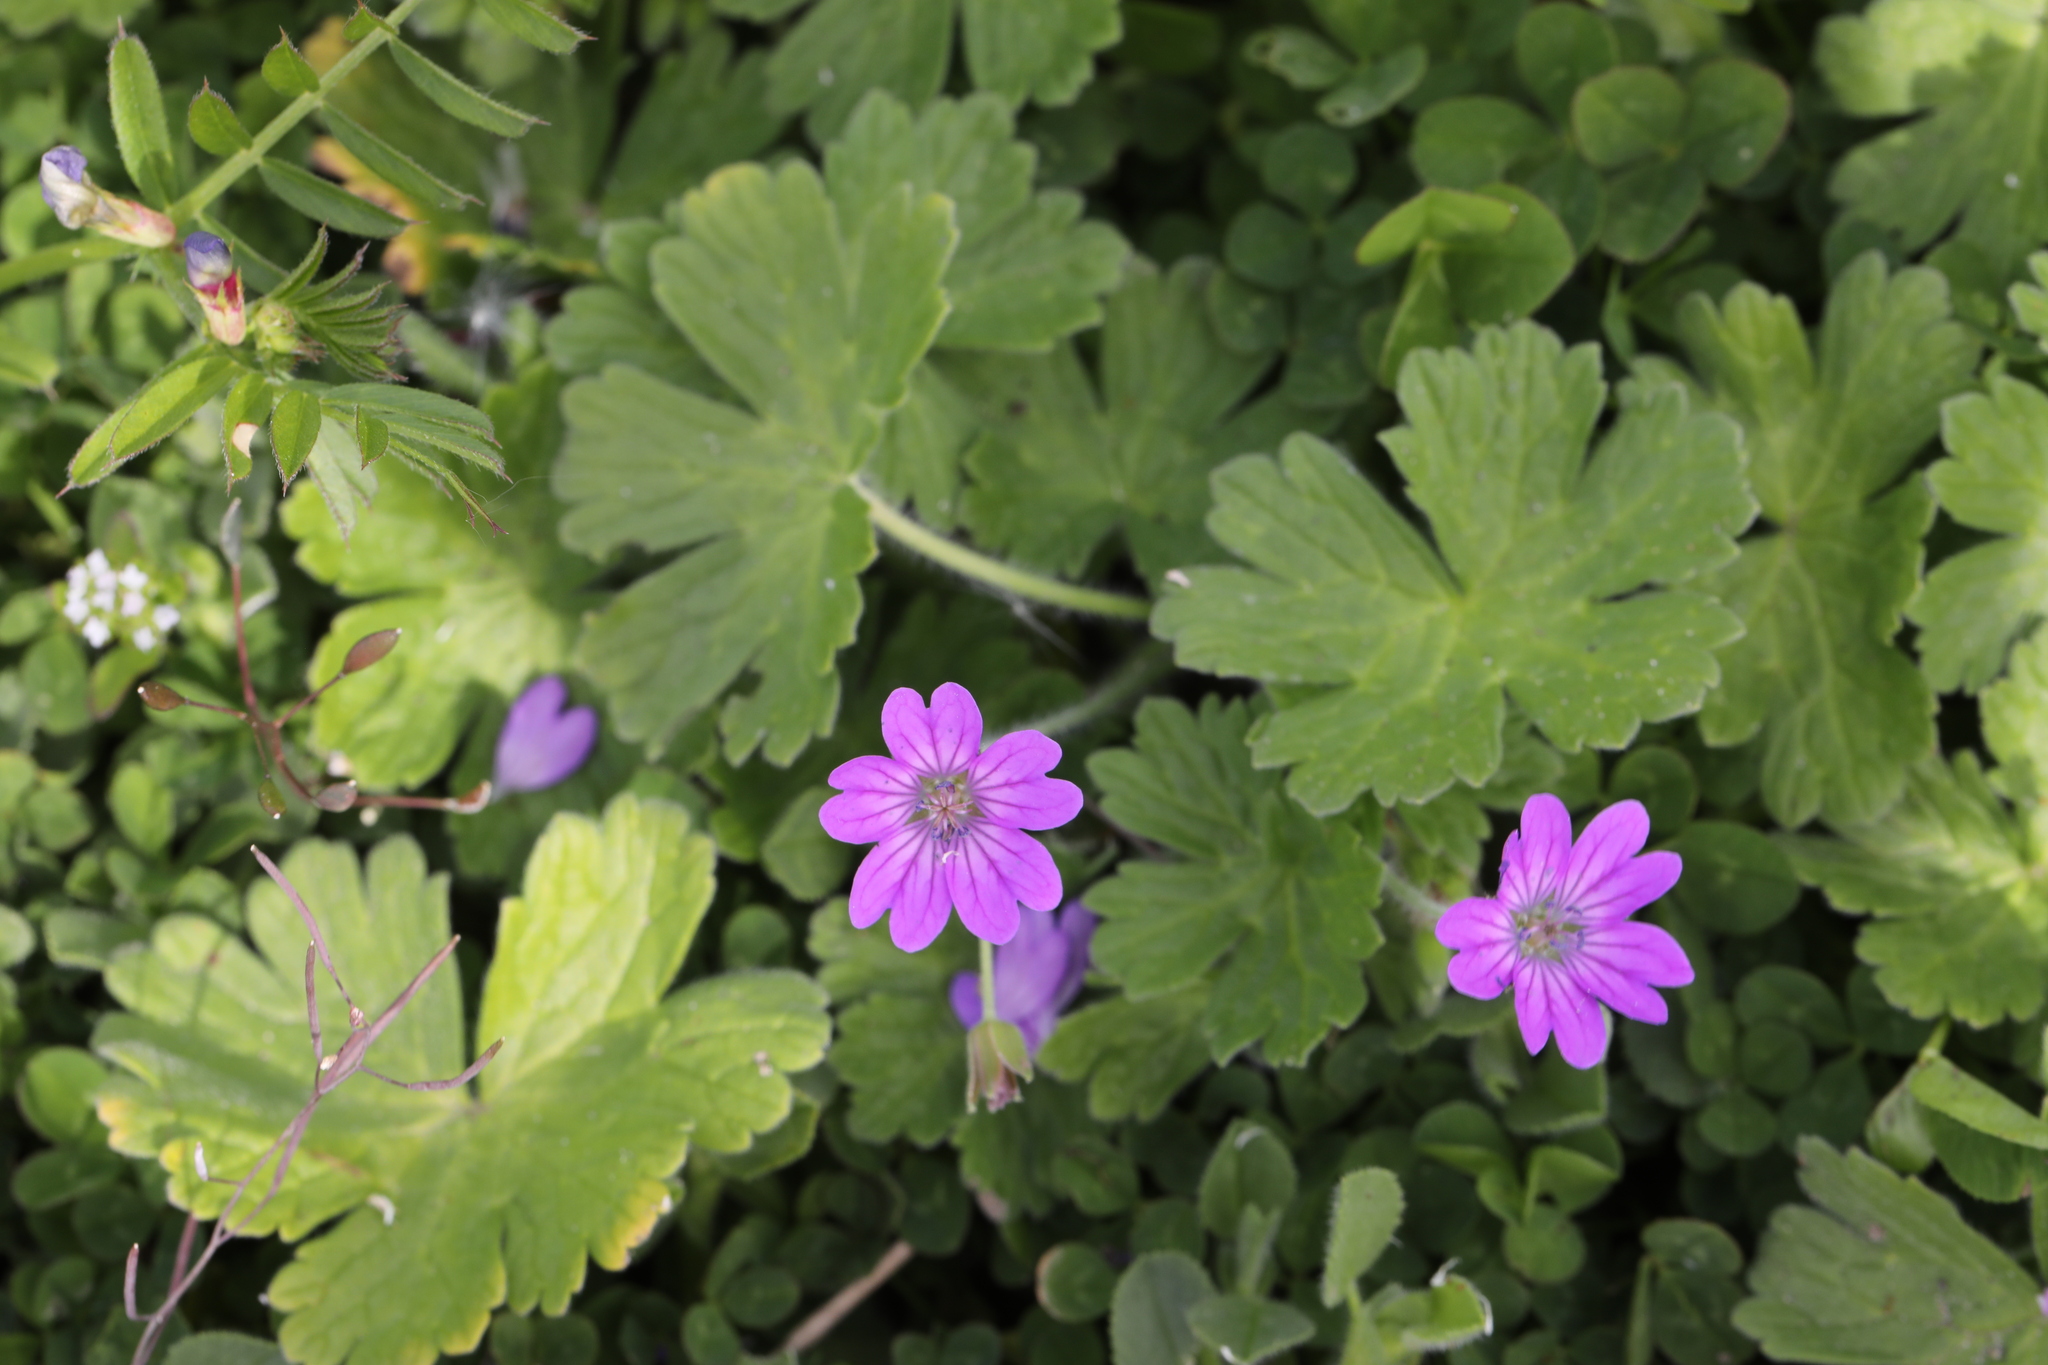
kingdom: Plantae
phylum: Tracheophyta
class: Magnoliopsida
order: Geraniales
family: Geraniaceae
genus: Geranium
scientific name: Geranium pyrenaicum
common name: Hedgerow crane's-bill
